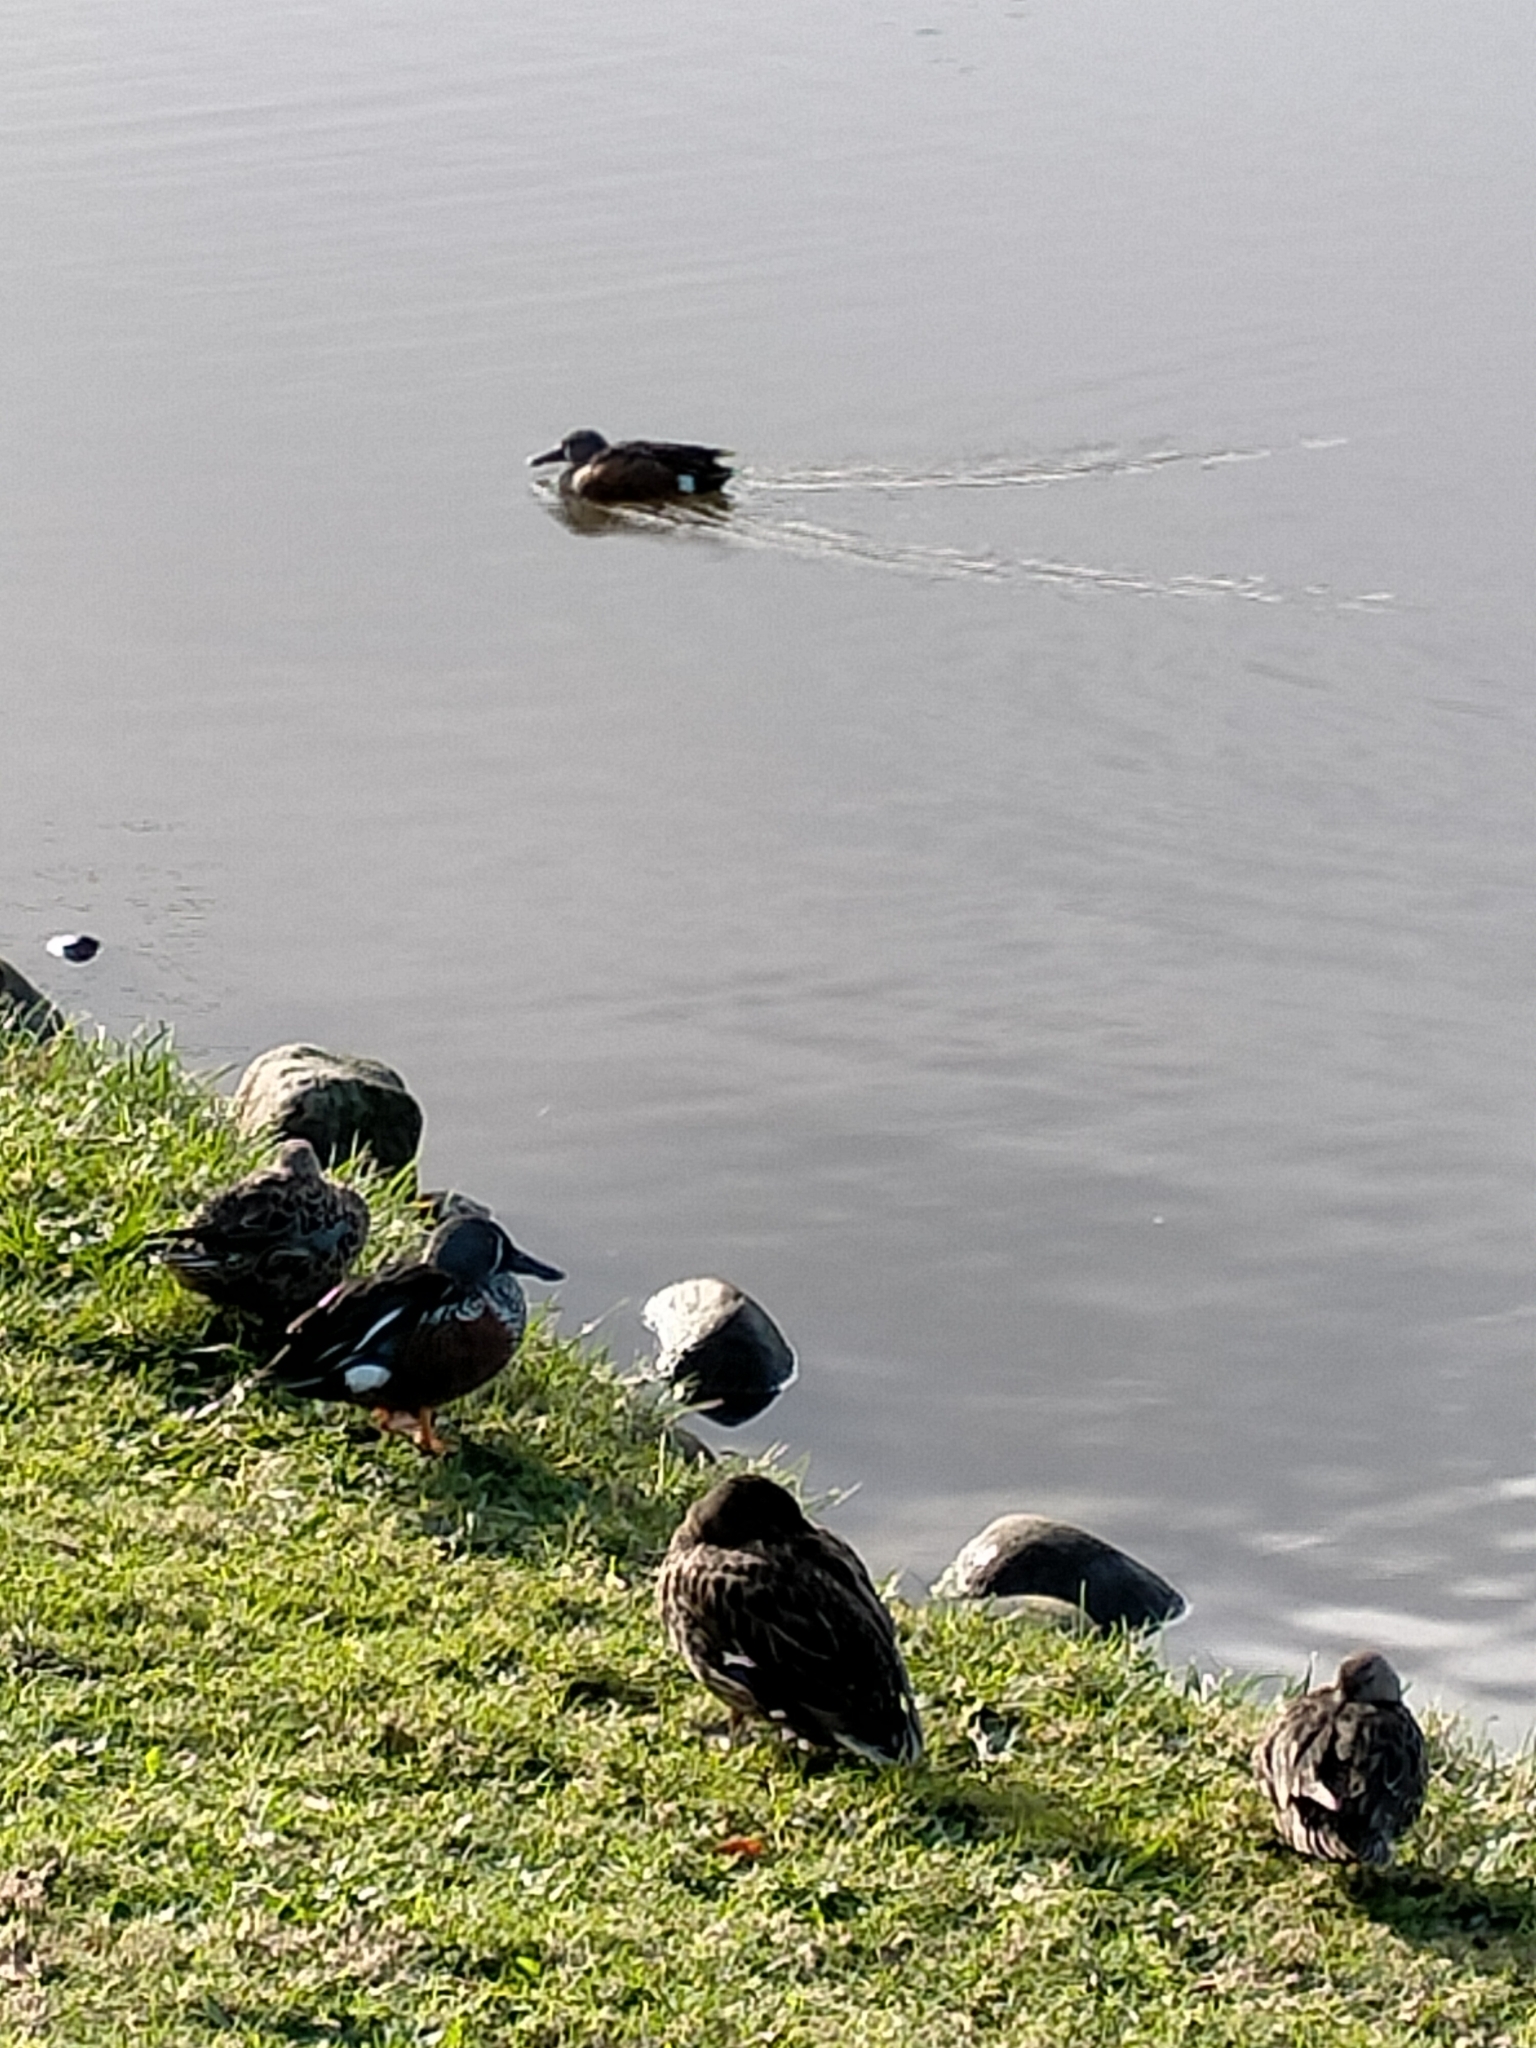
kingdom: Animalia
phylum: Chordata
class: Aves
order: Anseriformes
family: Anatidae
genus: Spatula
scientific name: Spatula rhynchotis
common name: Australian shoveler
